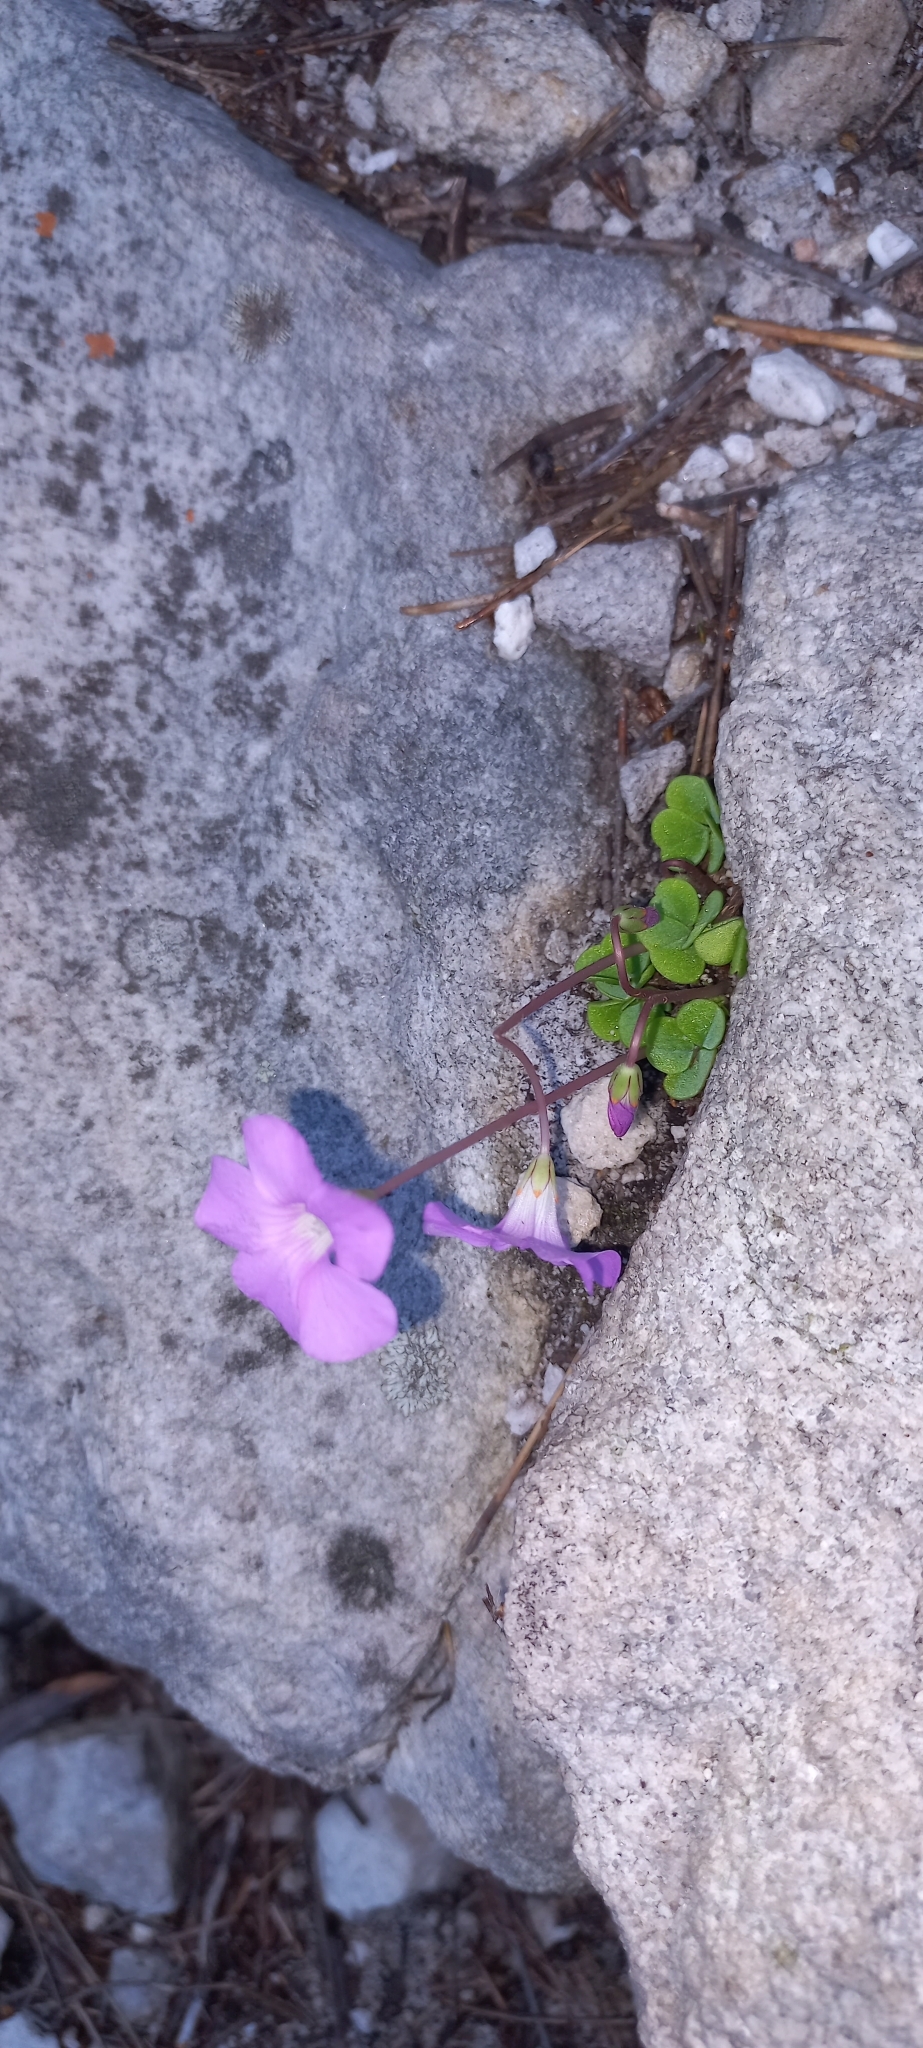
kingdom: Plantae
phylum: Tracheophyta
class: Magnoliopsida
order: Oxalidales
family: Oxalidaceae
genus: Oxalis
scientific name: Oxalis commutata
